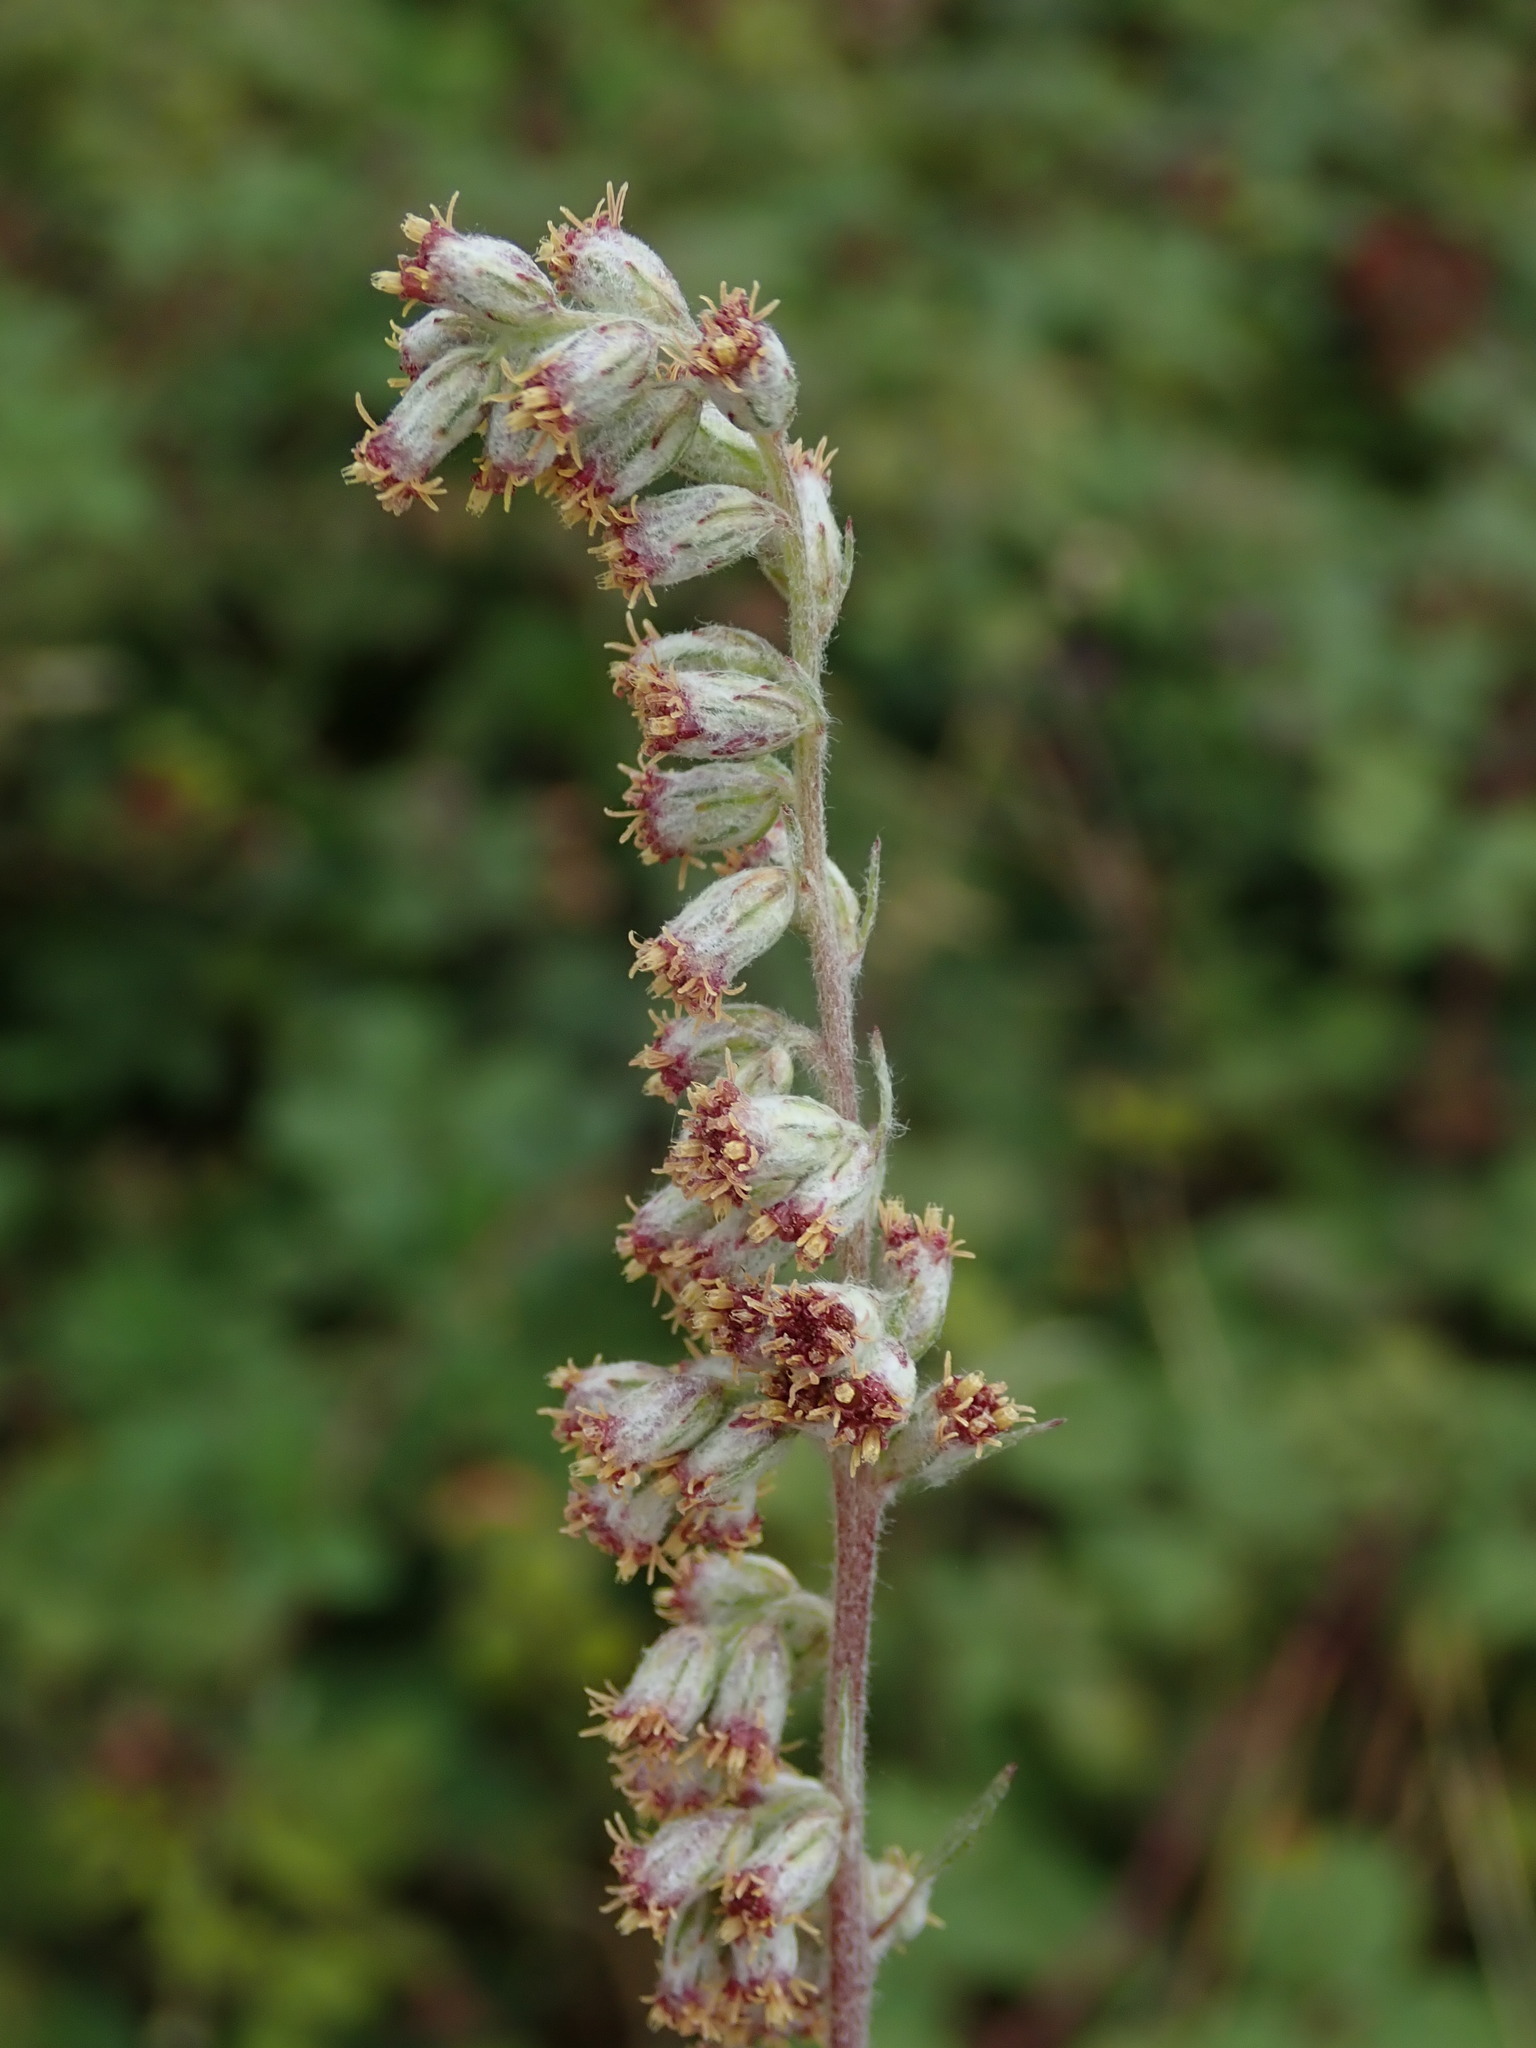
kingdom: Plantae
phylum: Tracheophyta
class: Magnoliopsida
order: Asterales
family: Asteraceae
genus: Artemisia
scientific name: Artemisia vulgaris
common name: Mugwort
